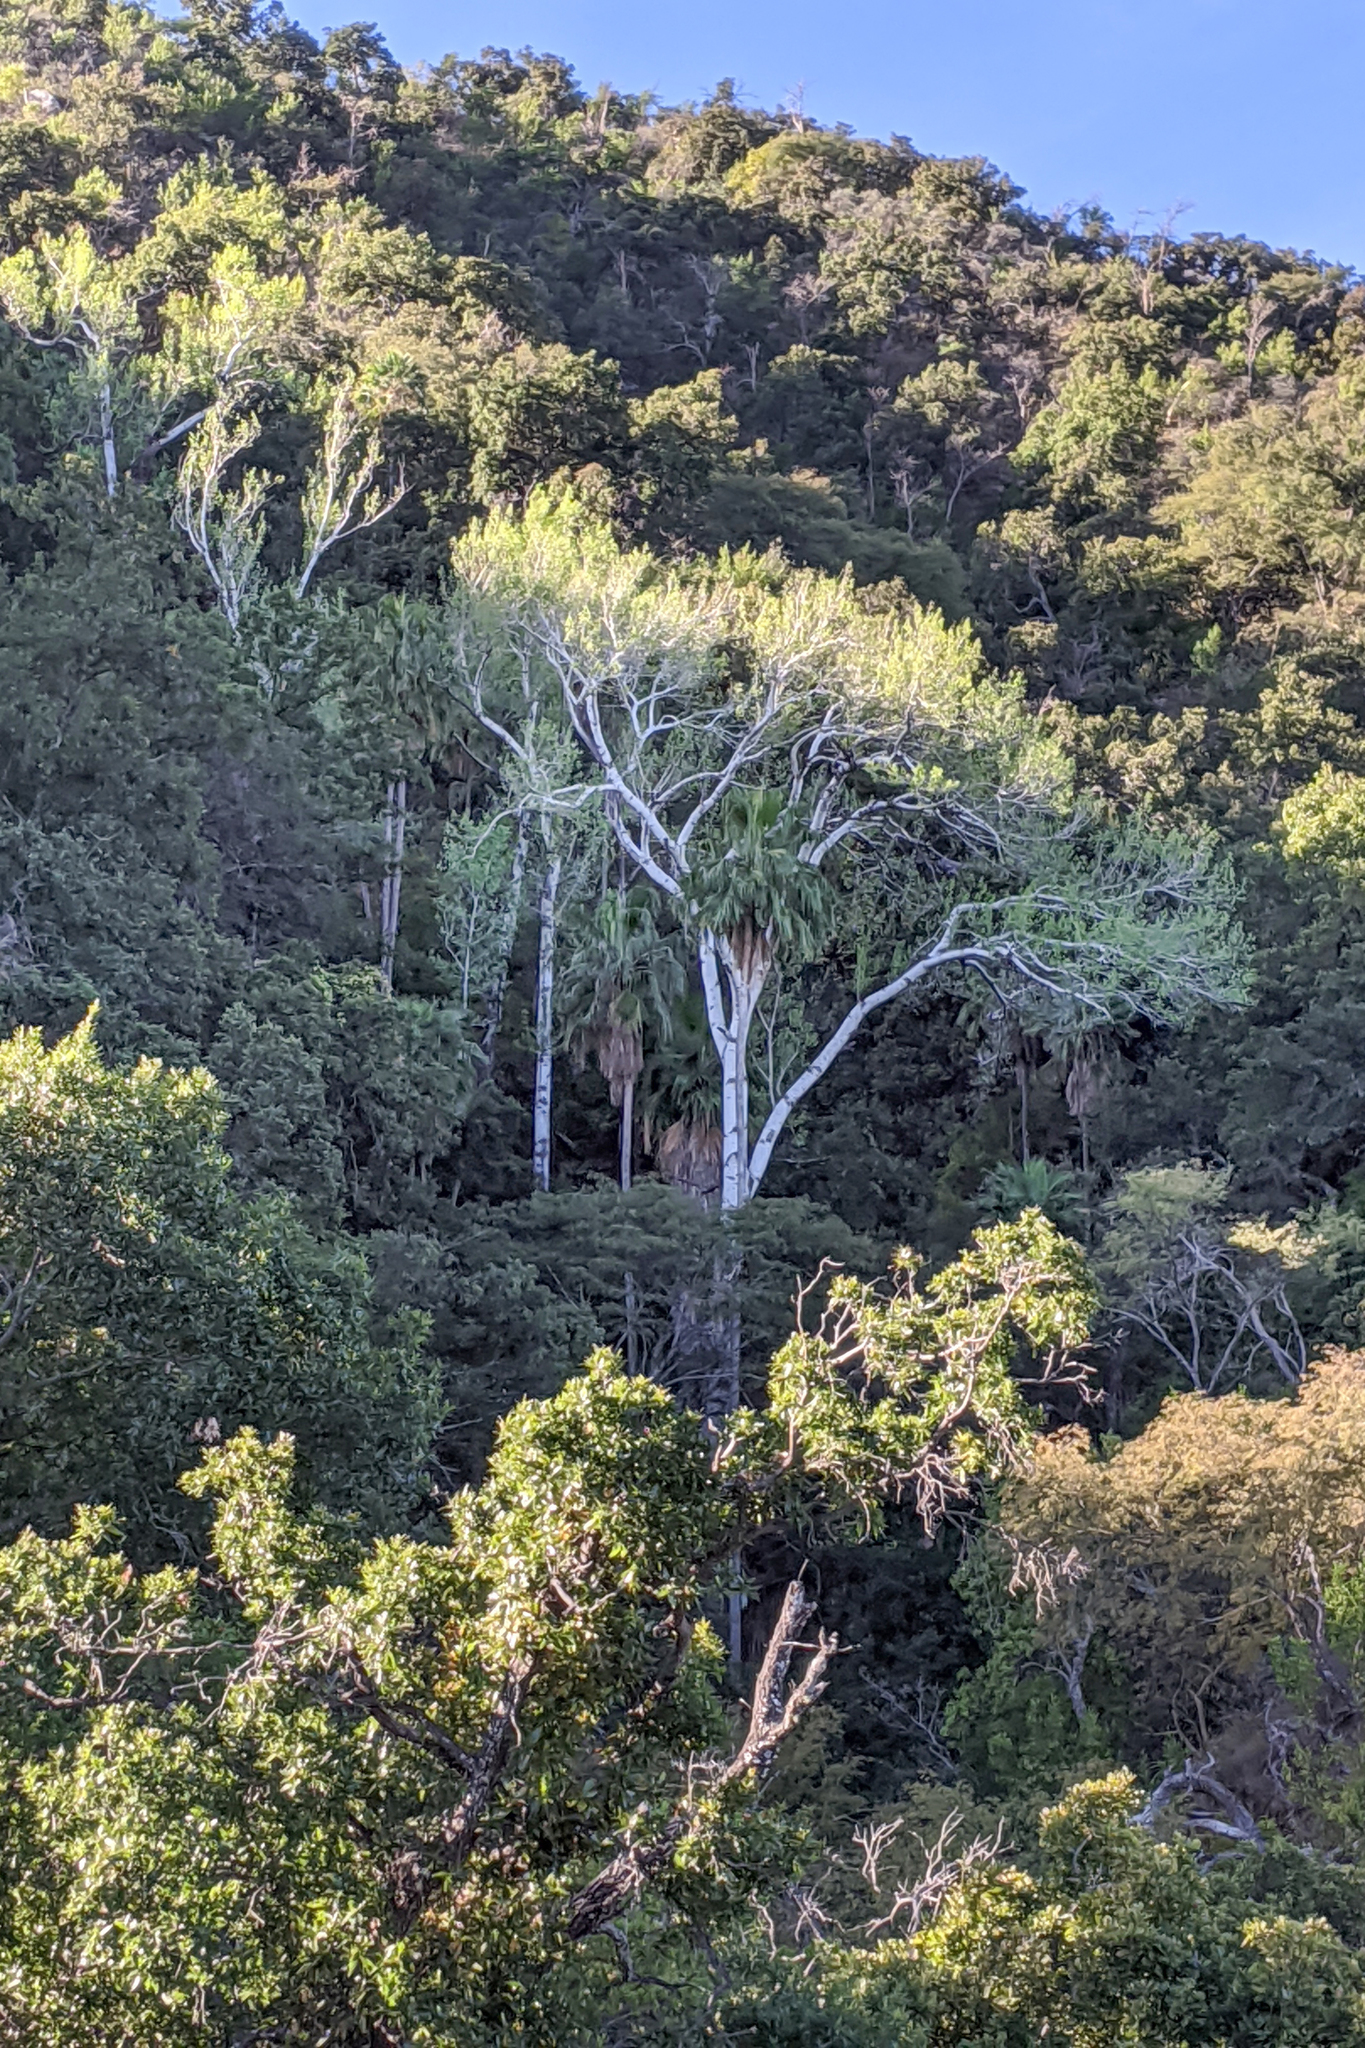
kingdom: Plantae
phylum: Tracheophyta
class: Magnoliopsida
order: Malpighiales
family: Salicaceae
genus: Populus
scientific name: Populus brandegeei
